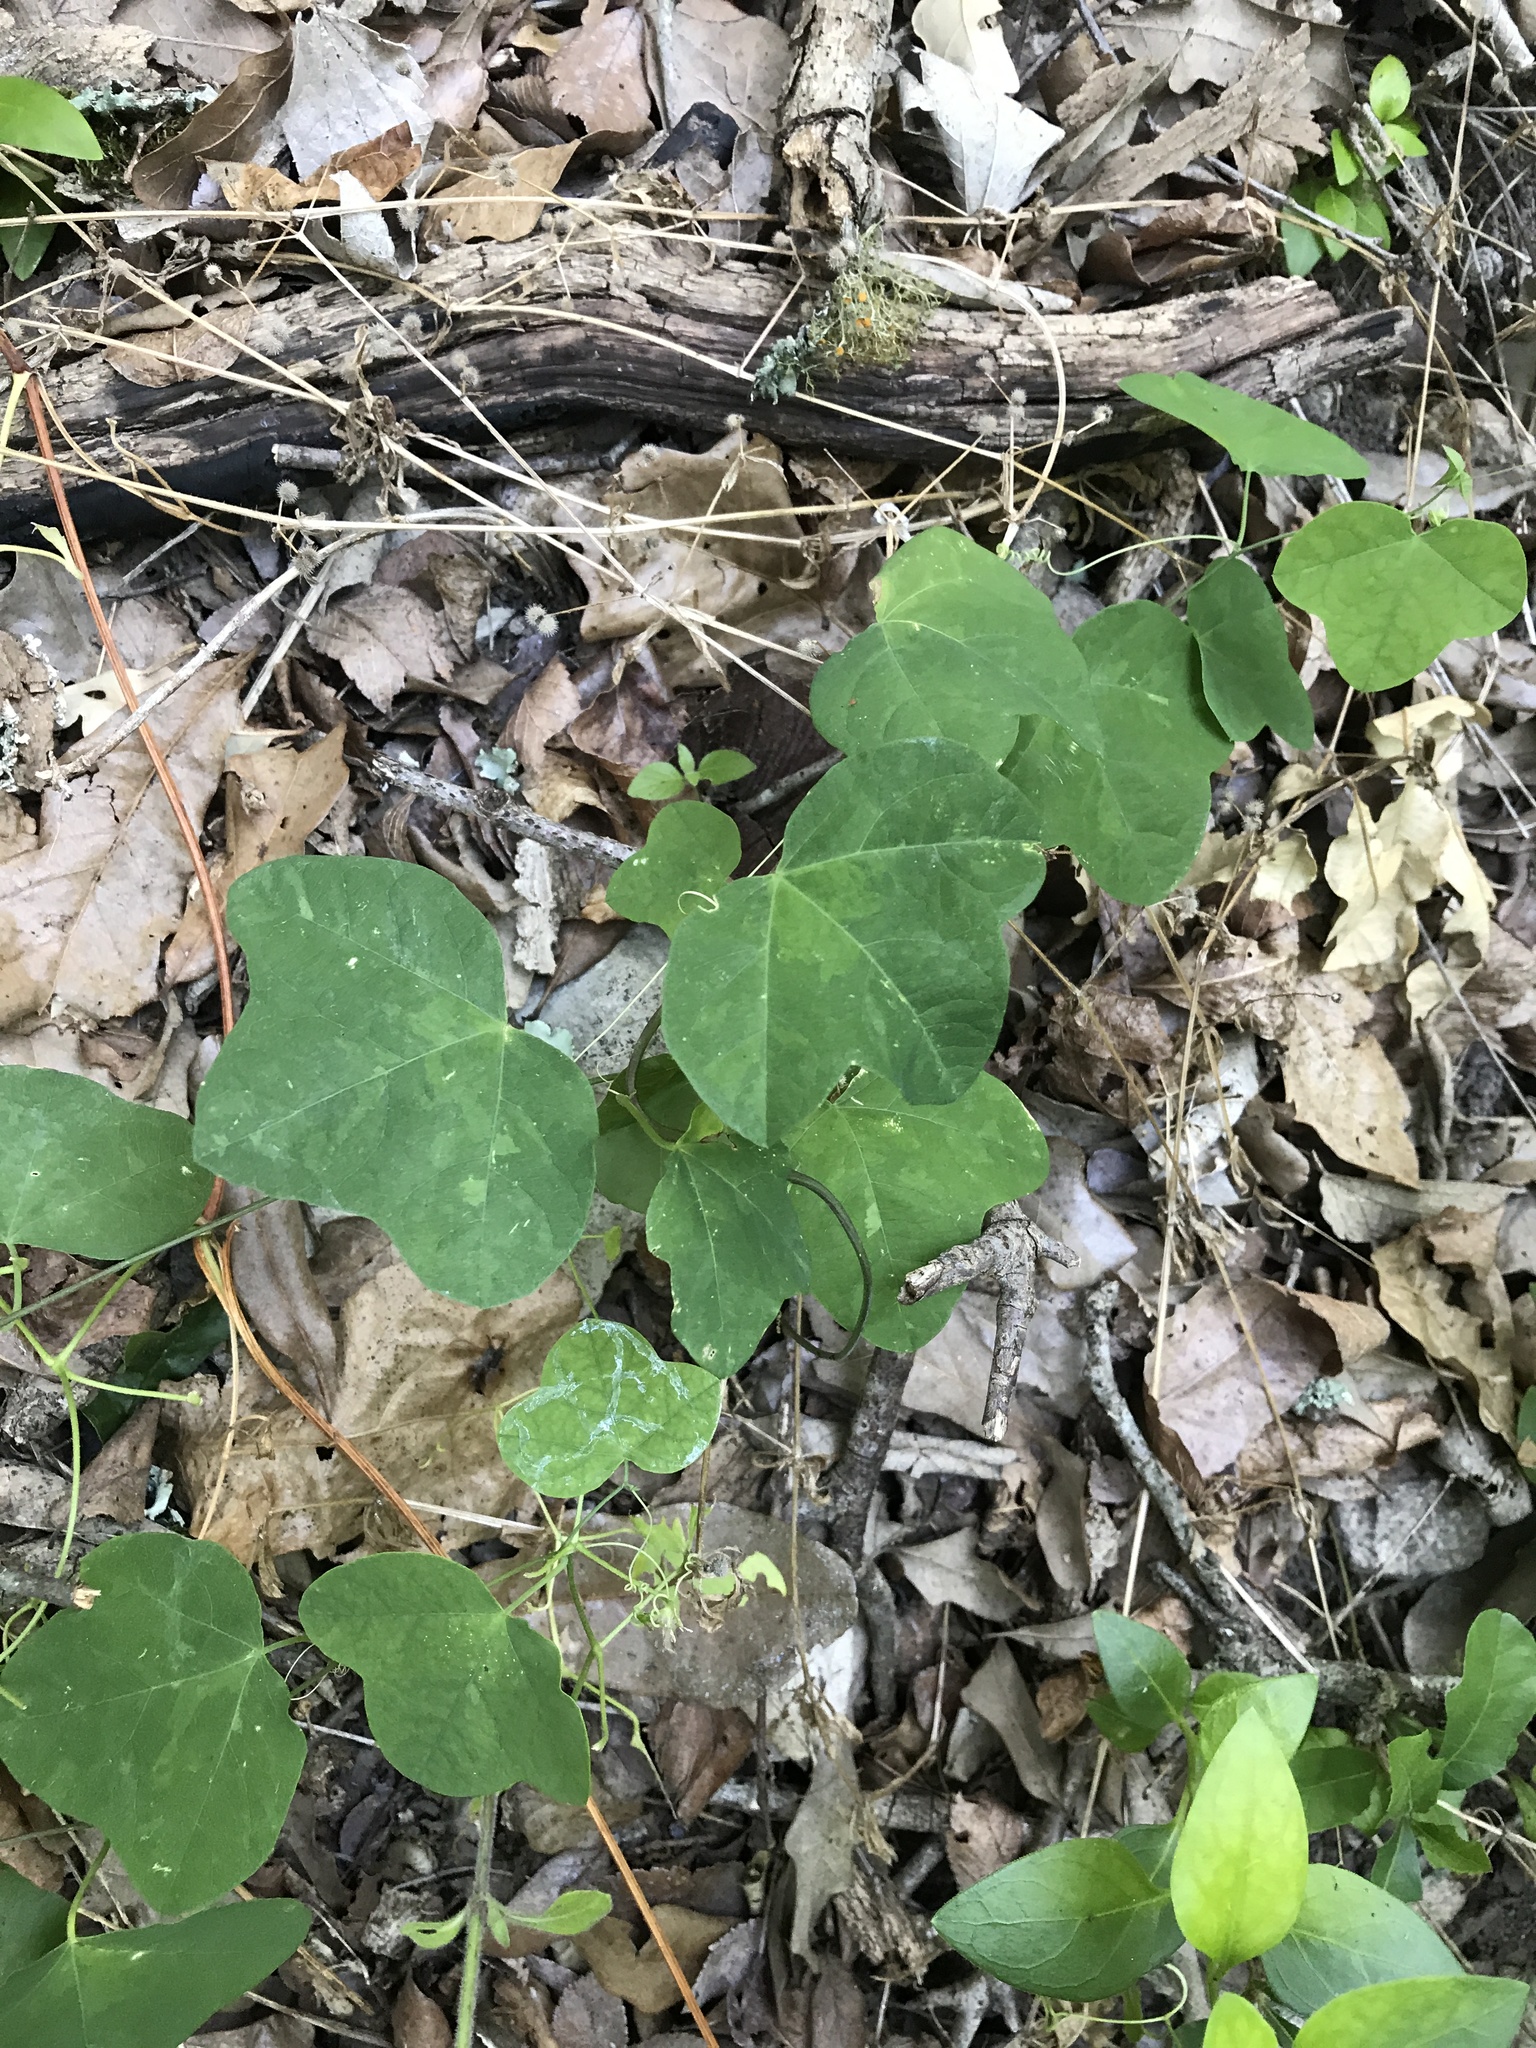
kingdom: Plantae
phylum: Tracheophyta
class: Magnoliopsida
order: Malpighiales
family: Passifloraceae
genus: Passiflora
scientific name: Passiflora lutea
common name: Yellow passionflower
